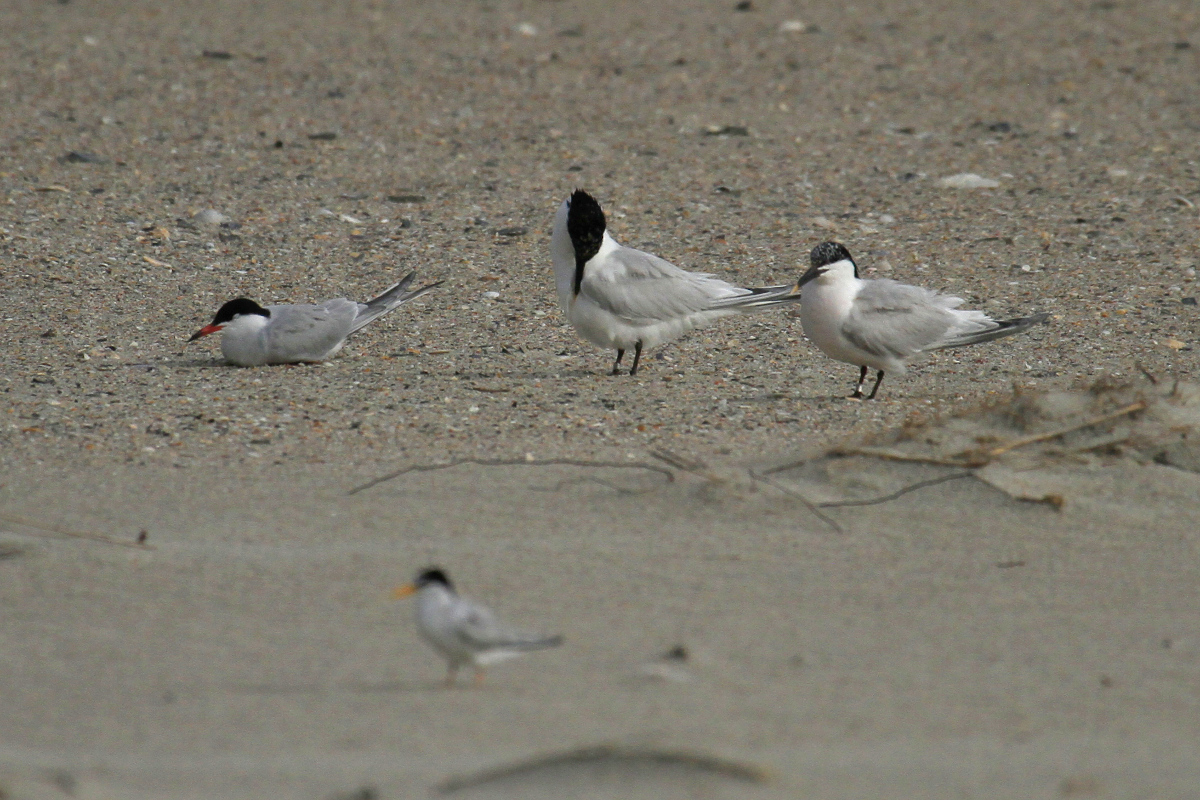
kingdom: Animalia
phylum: Chordata
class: Aves
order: Charadriiformes
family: Laridae
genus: Thalasseus
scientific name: Thalasseus sandvicensis
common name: Sandwich tern
